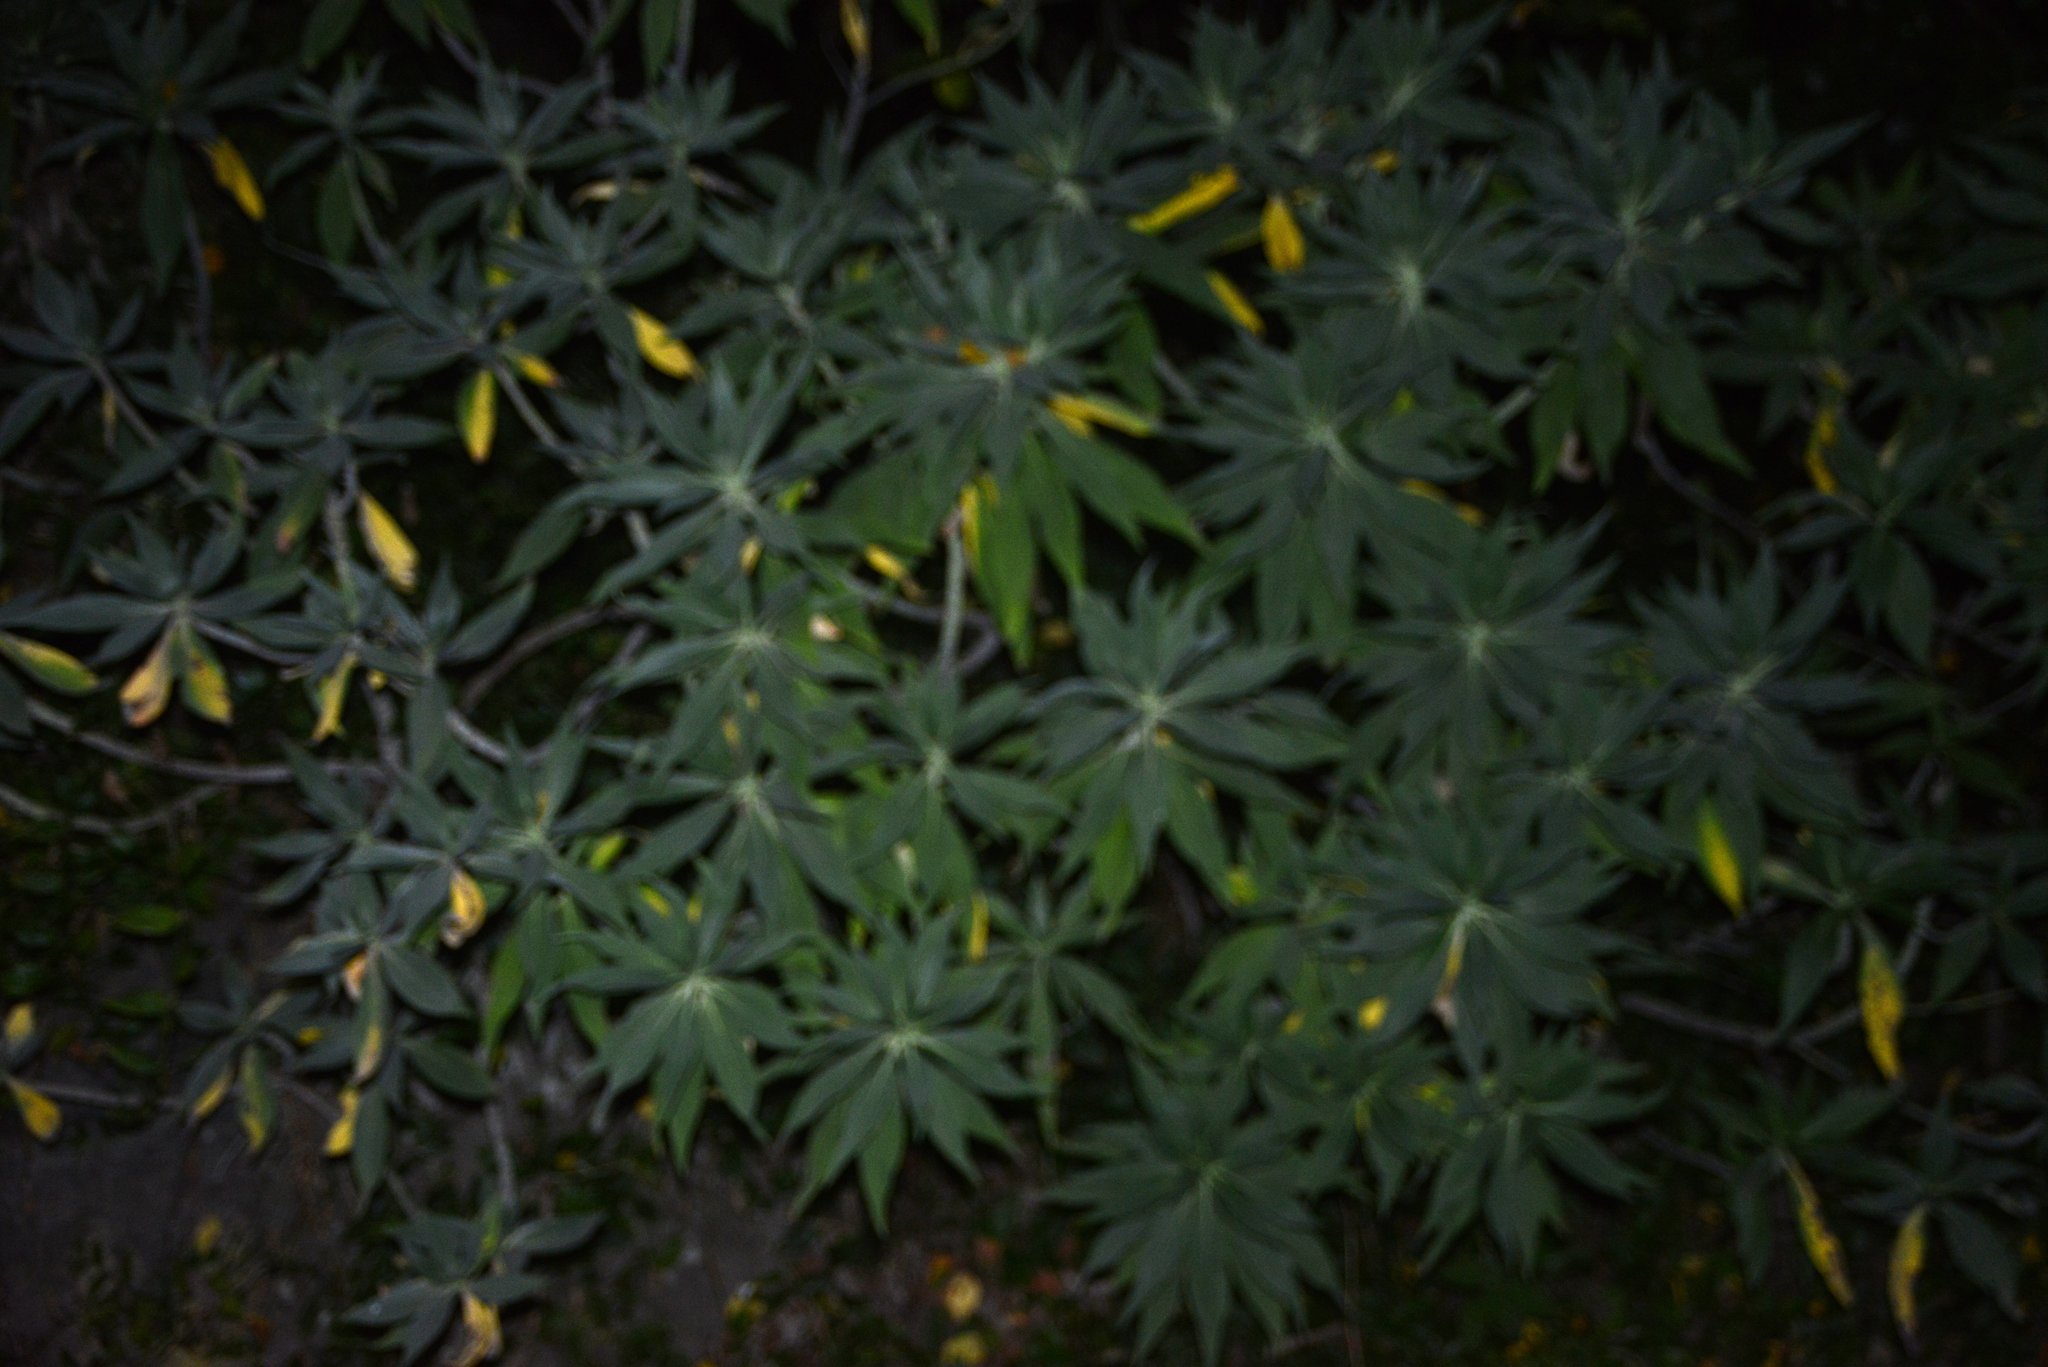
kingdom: Plantae
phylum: Tracheophyta
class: Magnoliopsida
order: Boraginales
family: Boraginaceae
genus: Echium
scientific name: Echium candicans
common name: Pride of madeira
